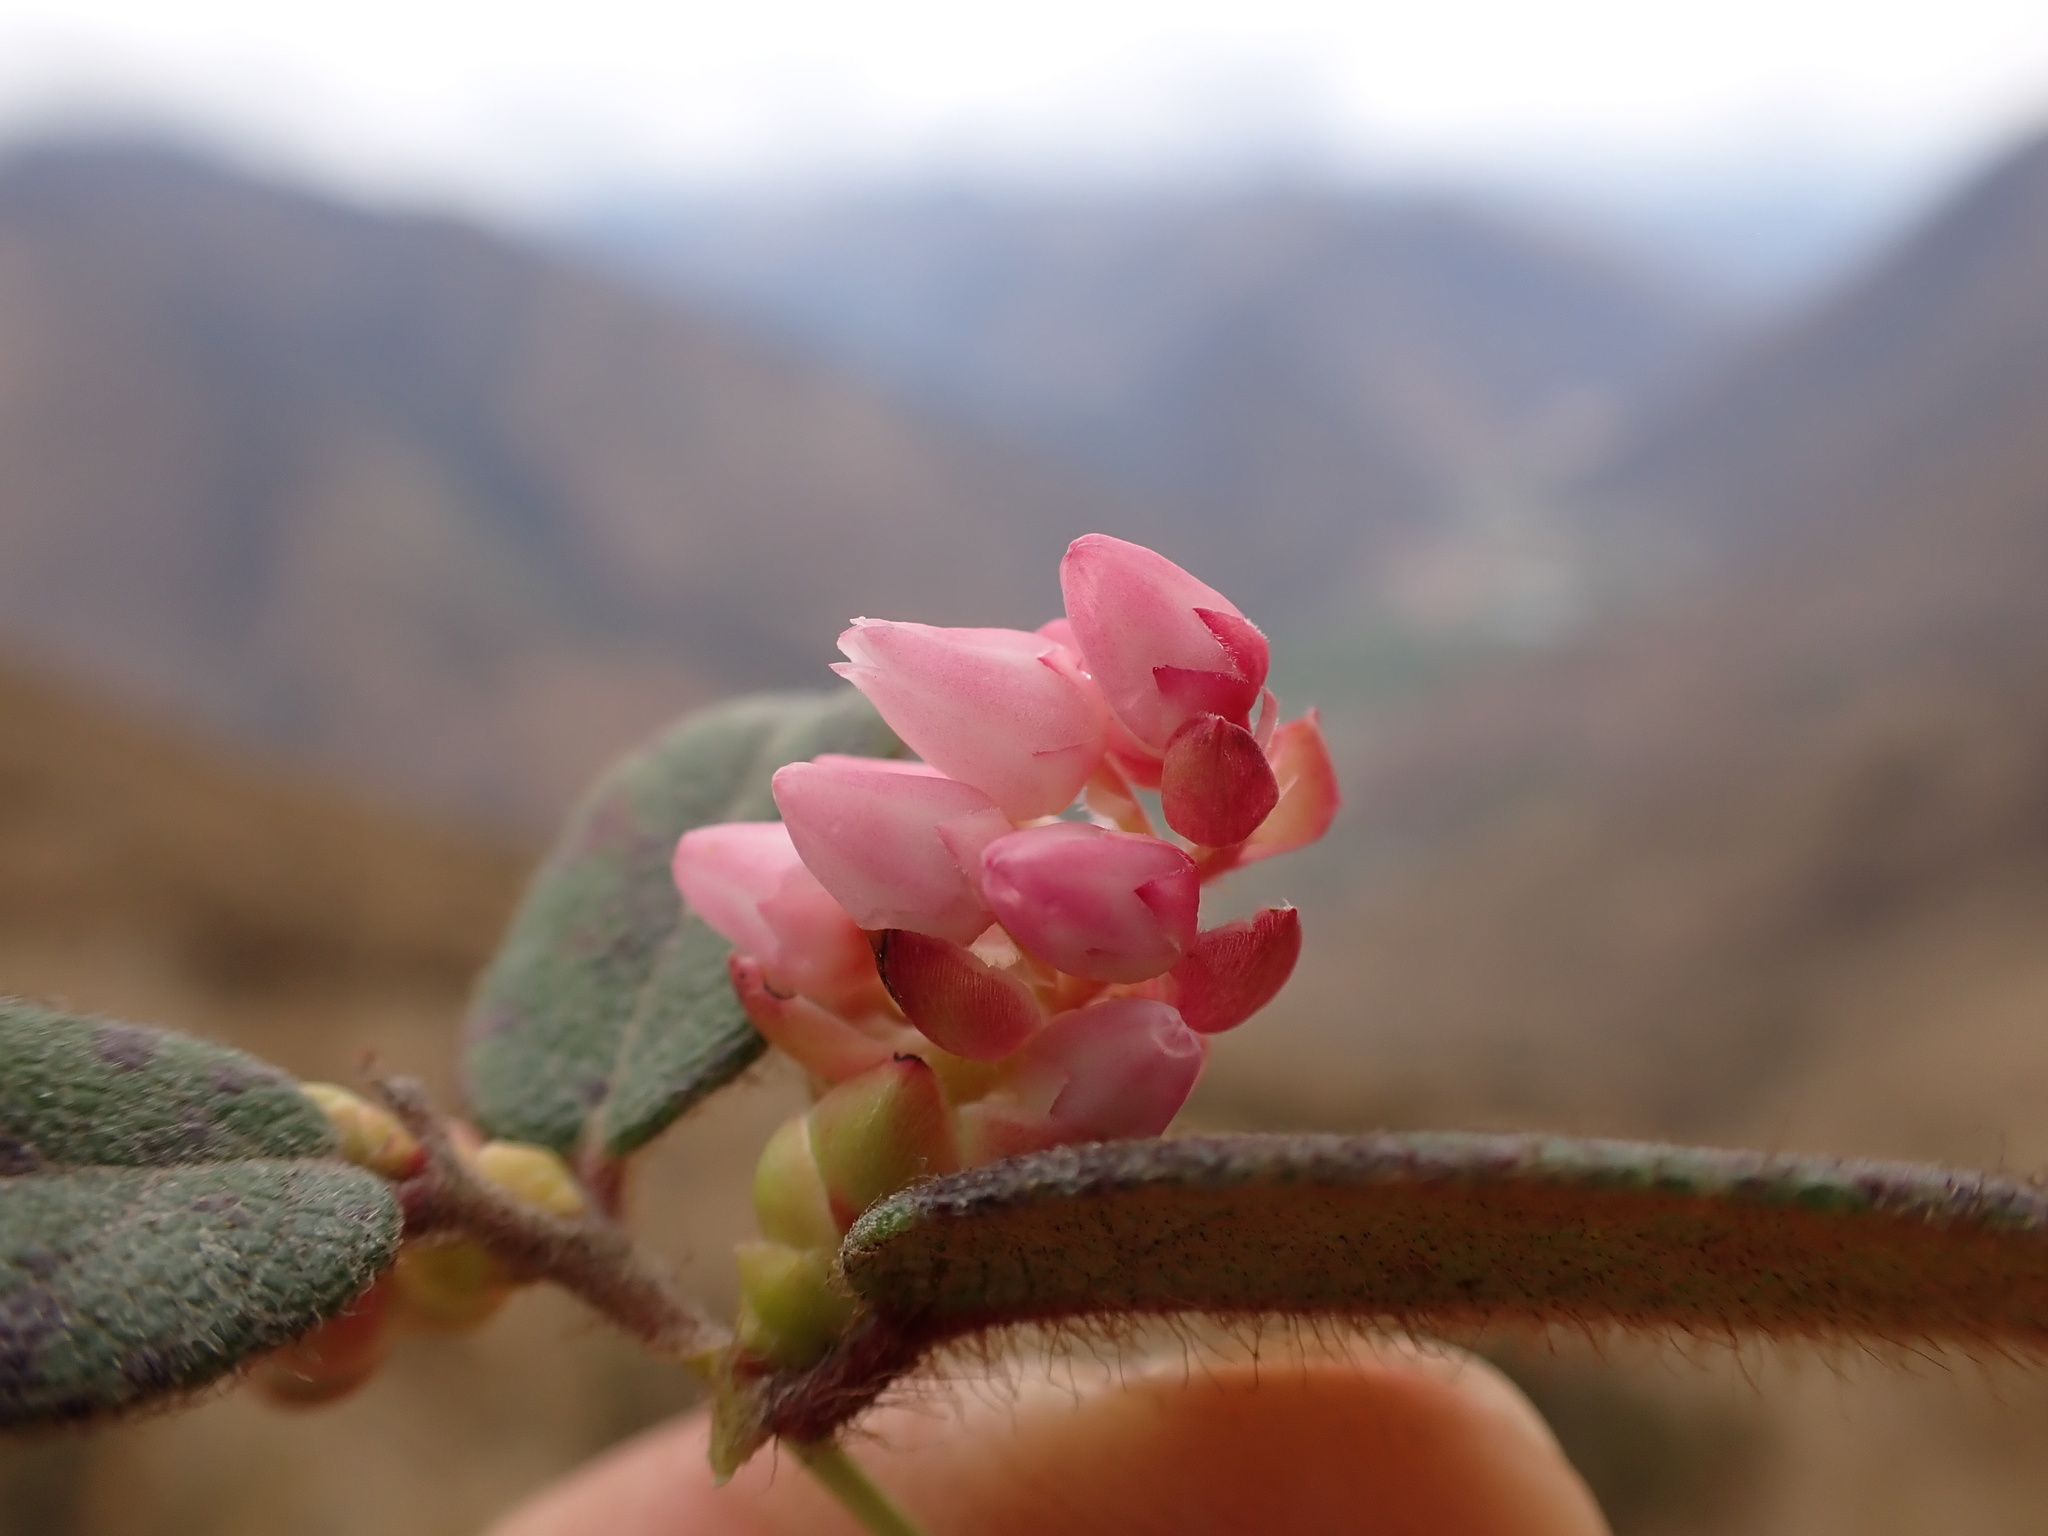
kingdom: Plantae
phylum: Tracheophyta
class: Magnoliopsida
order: Ericales
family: Ericaceae
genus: Gaultheria
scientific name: Gaultheria glomerata
